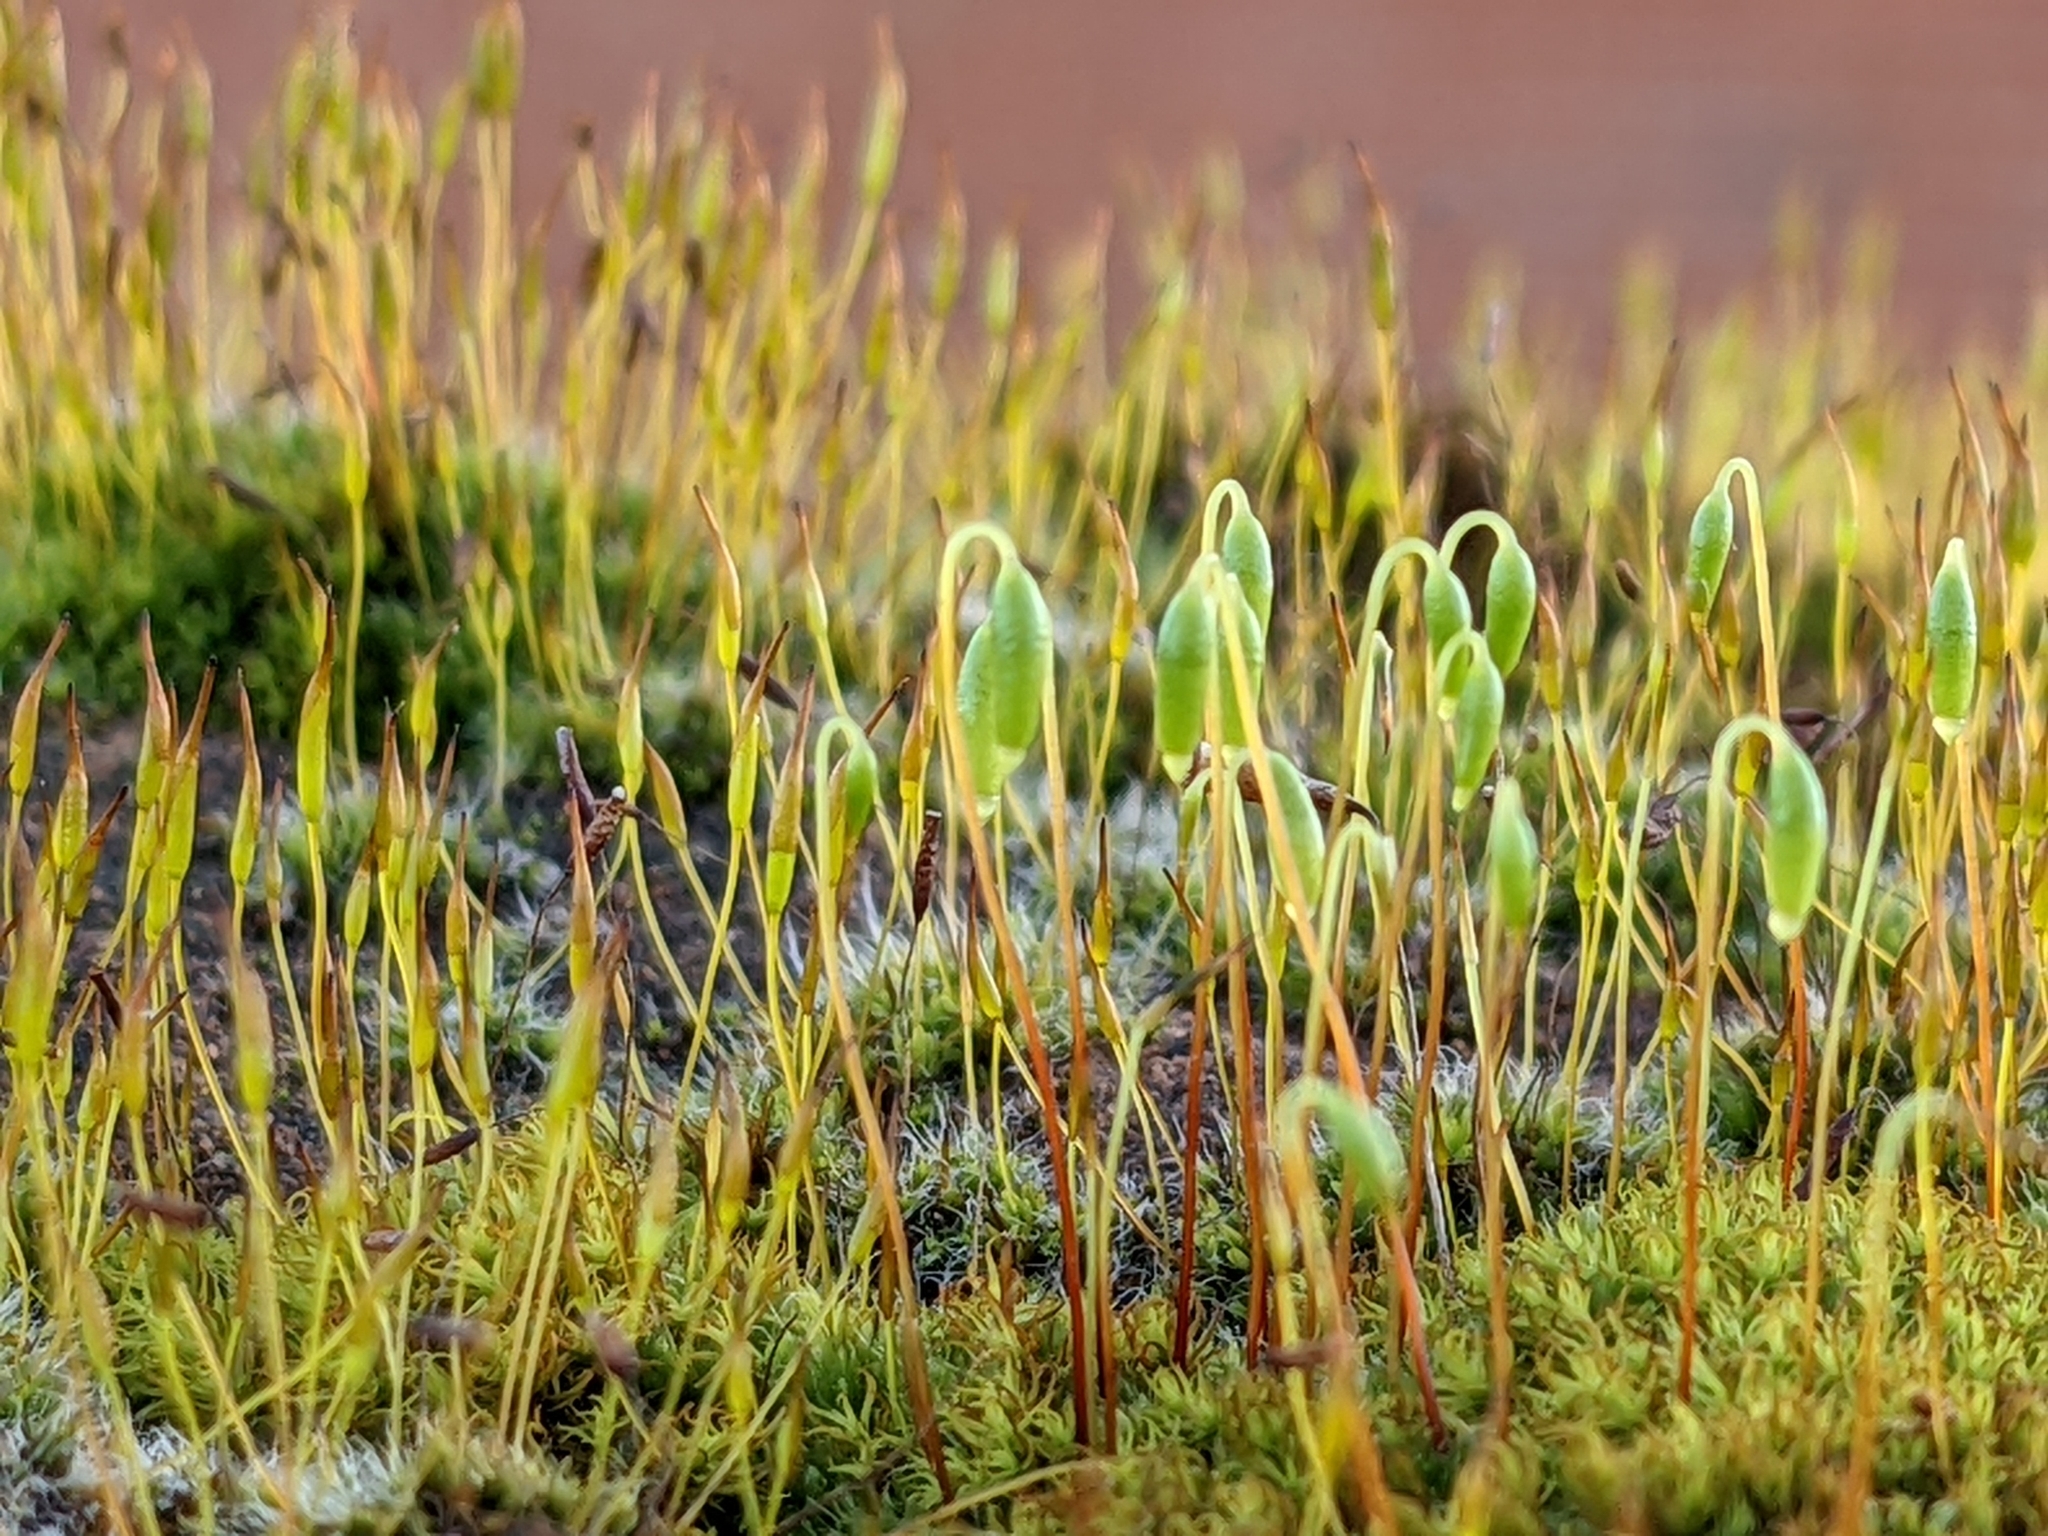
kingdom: Plantae
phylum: Bryophyta
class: Bryopsida
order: Bryales
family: Bryaceae
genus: Rosulabryum
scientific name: Rosulabryum capillare
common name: Capillary thread-moss
